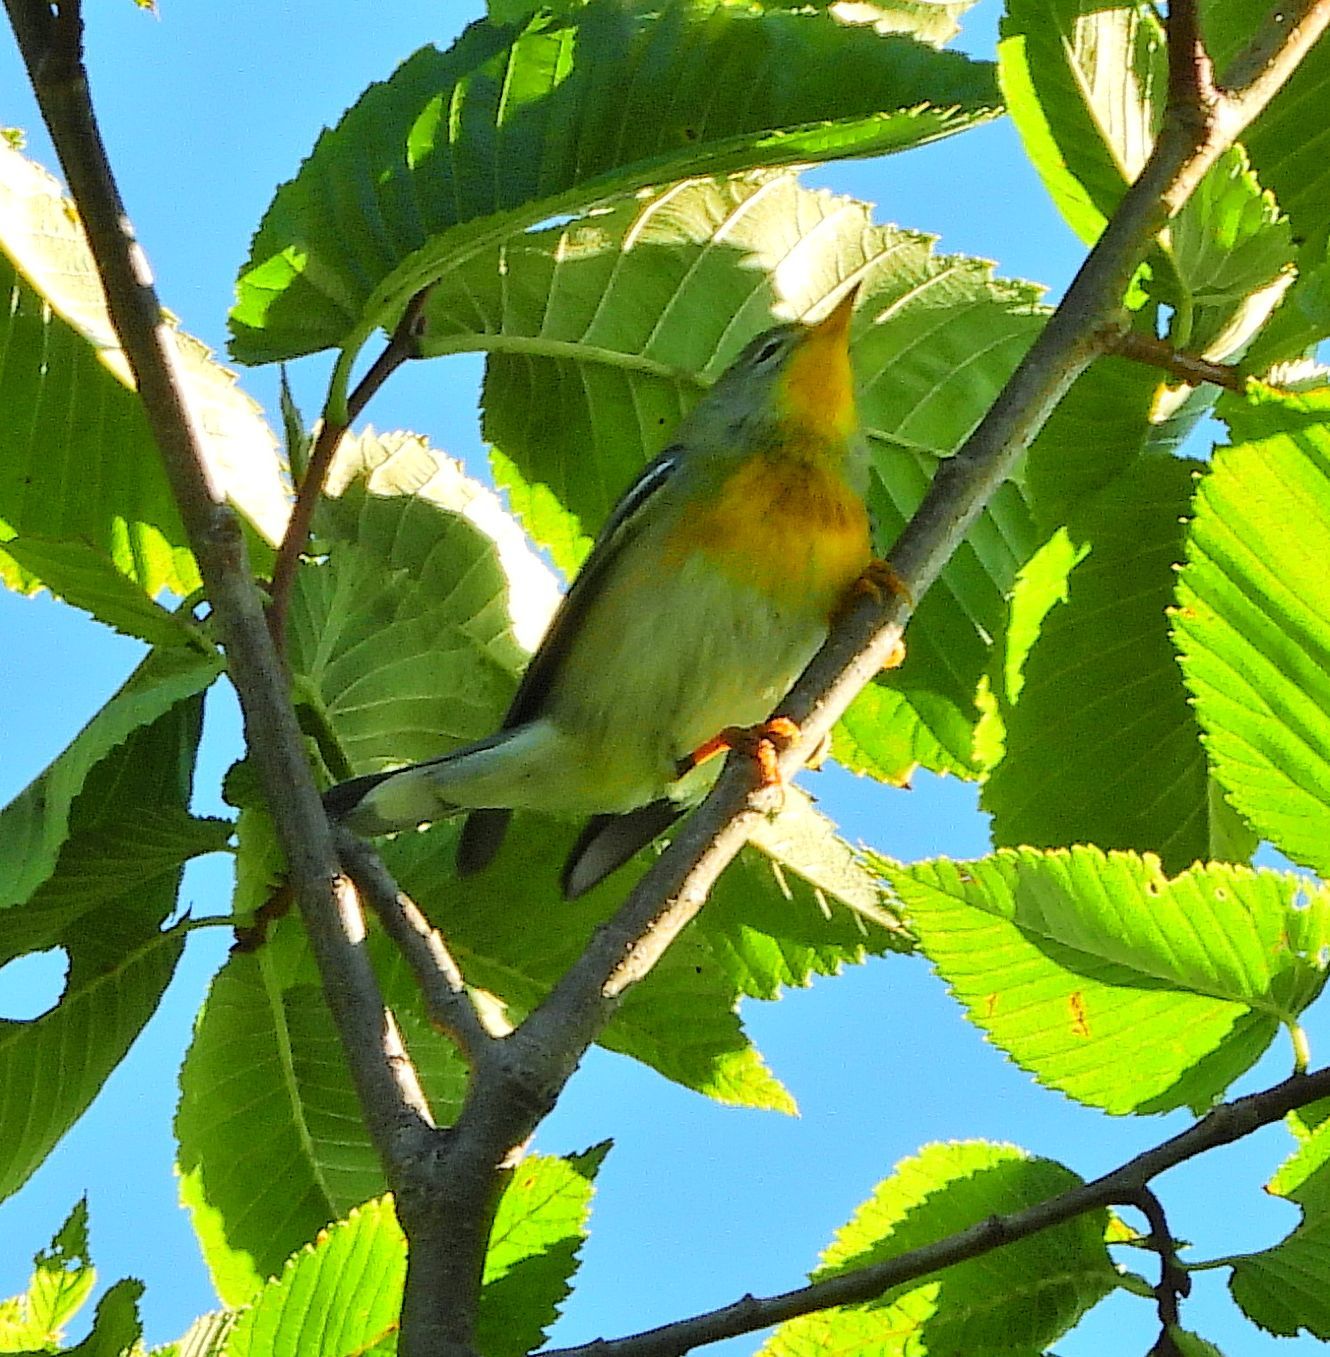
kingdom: Animalia
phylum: Chordata
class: Aves
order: Passeriformes
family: Parulidae
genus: Setophaga
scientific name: Setophaga americana
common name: Northern parula
